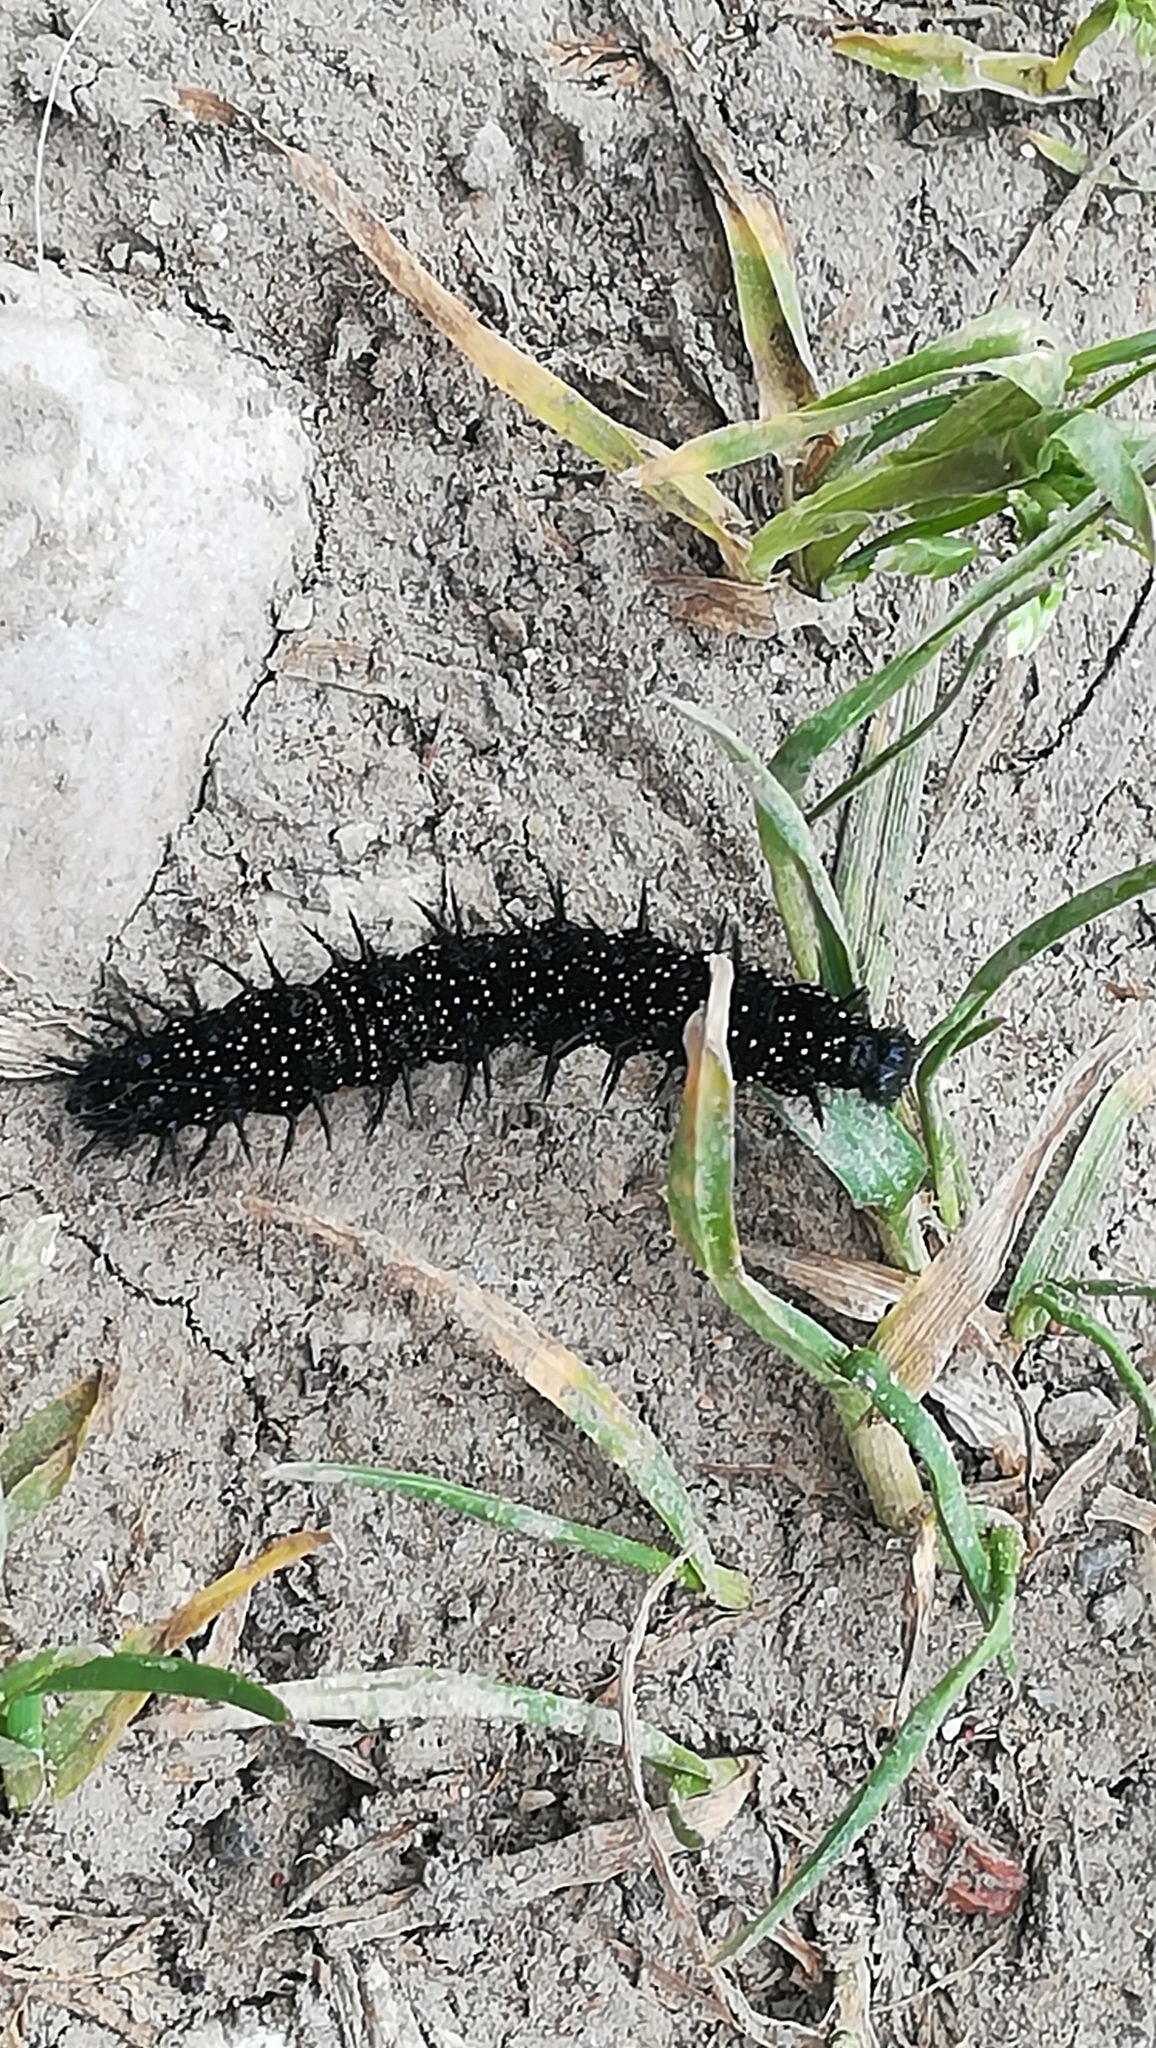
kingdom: Animalia
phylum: Arthropoda
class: Insecta
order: Lepidoptera
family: Nymphalidae
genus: Aglais
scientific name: Aglais io
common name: Peacock
